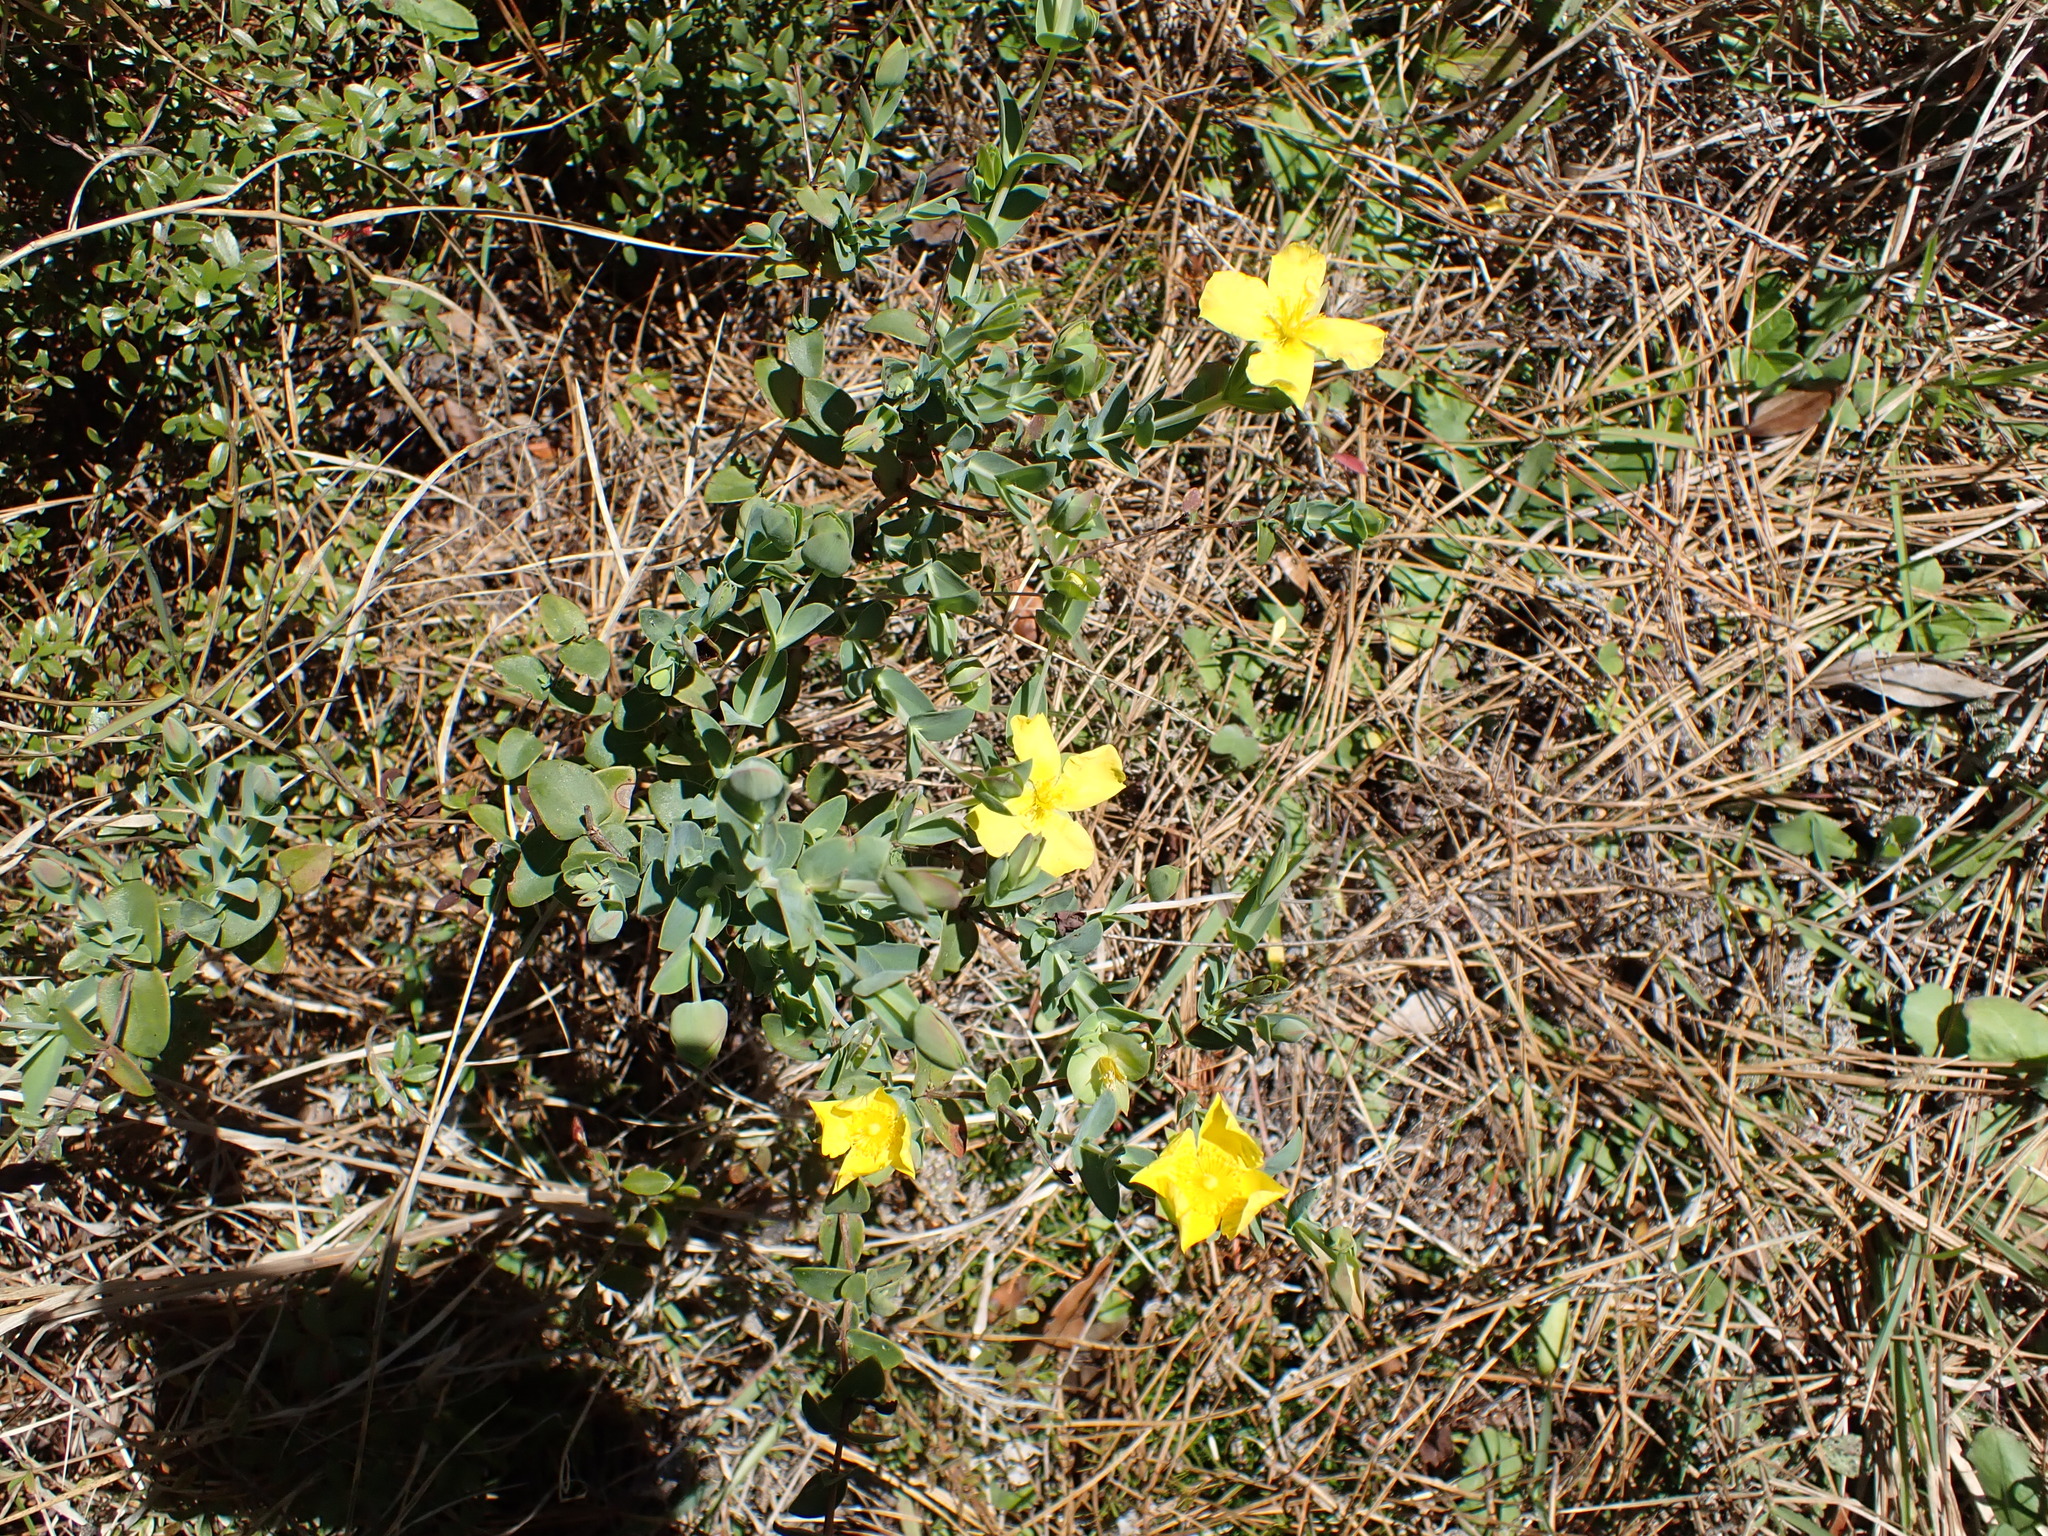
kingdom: Plantae
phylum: Tracheophyta
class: Magnoliopsida
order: Malpighiales
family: Hypericaceae
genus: Hypericum
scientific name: Hypericum tetrapetalum
